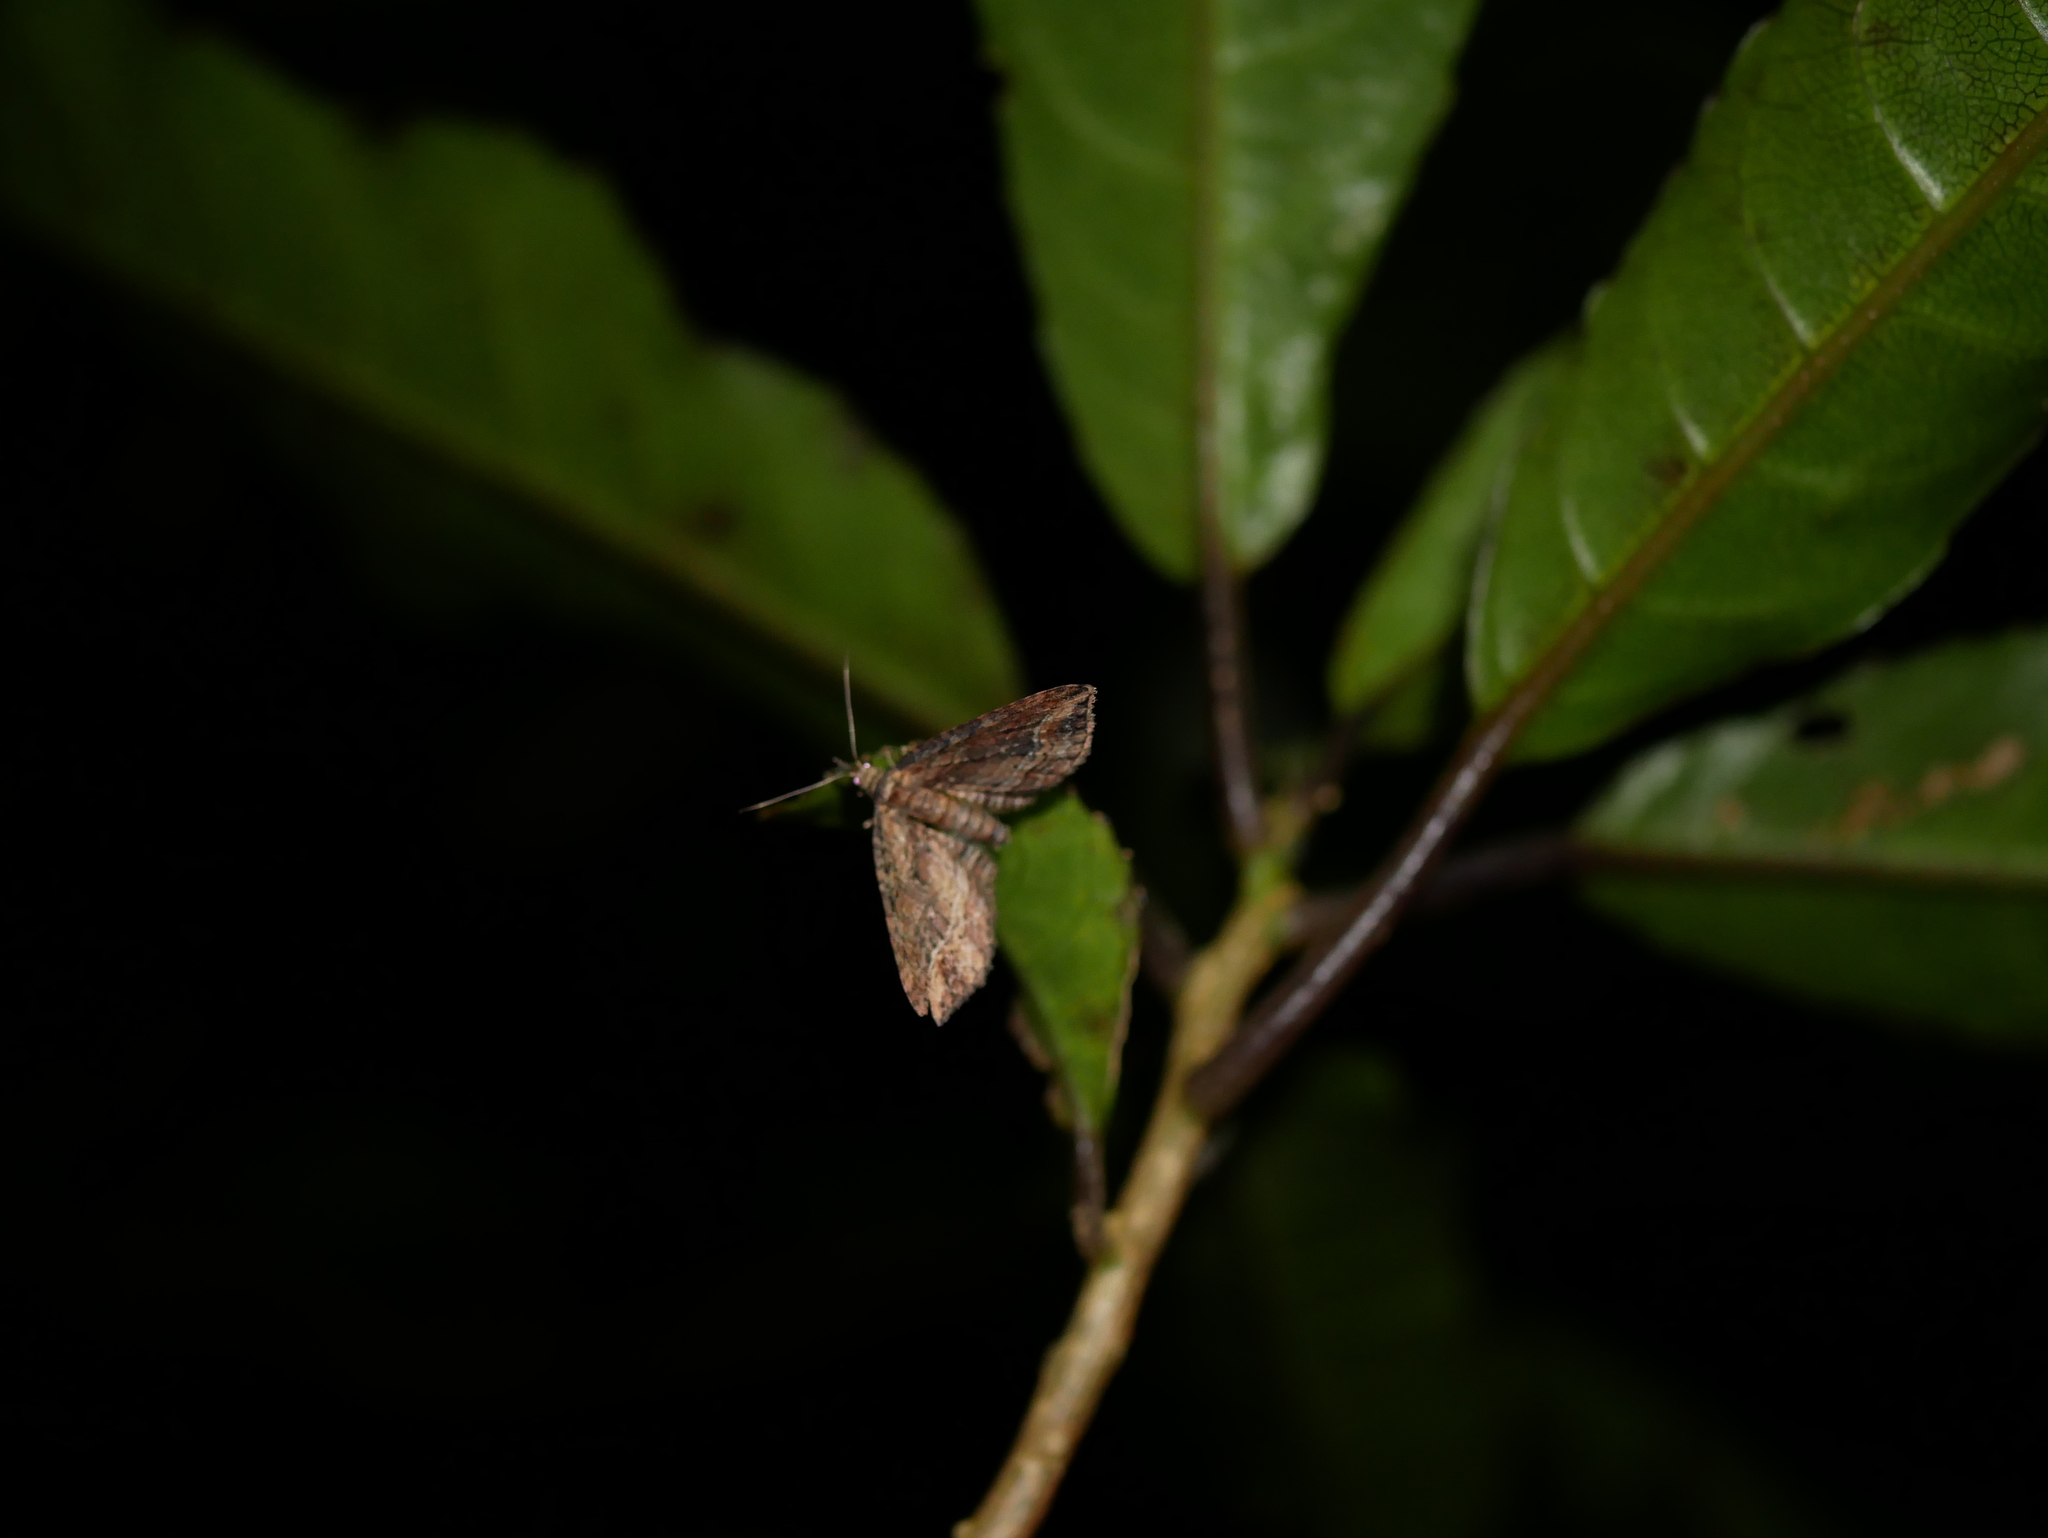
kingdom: Animalia
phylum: Arthropoda
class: Insecta
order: Lepidoptera
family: Geometridae
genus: Chloroclystis
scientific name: Chloroclystis filata
